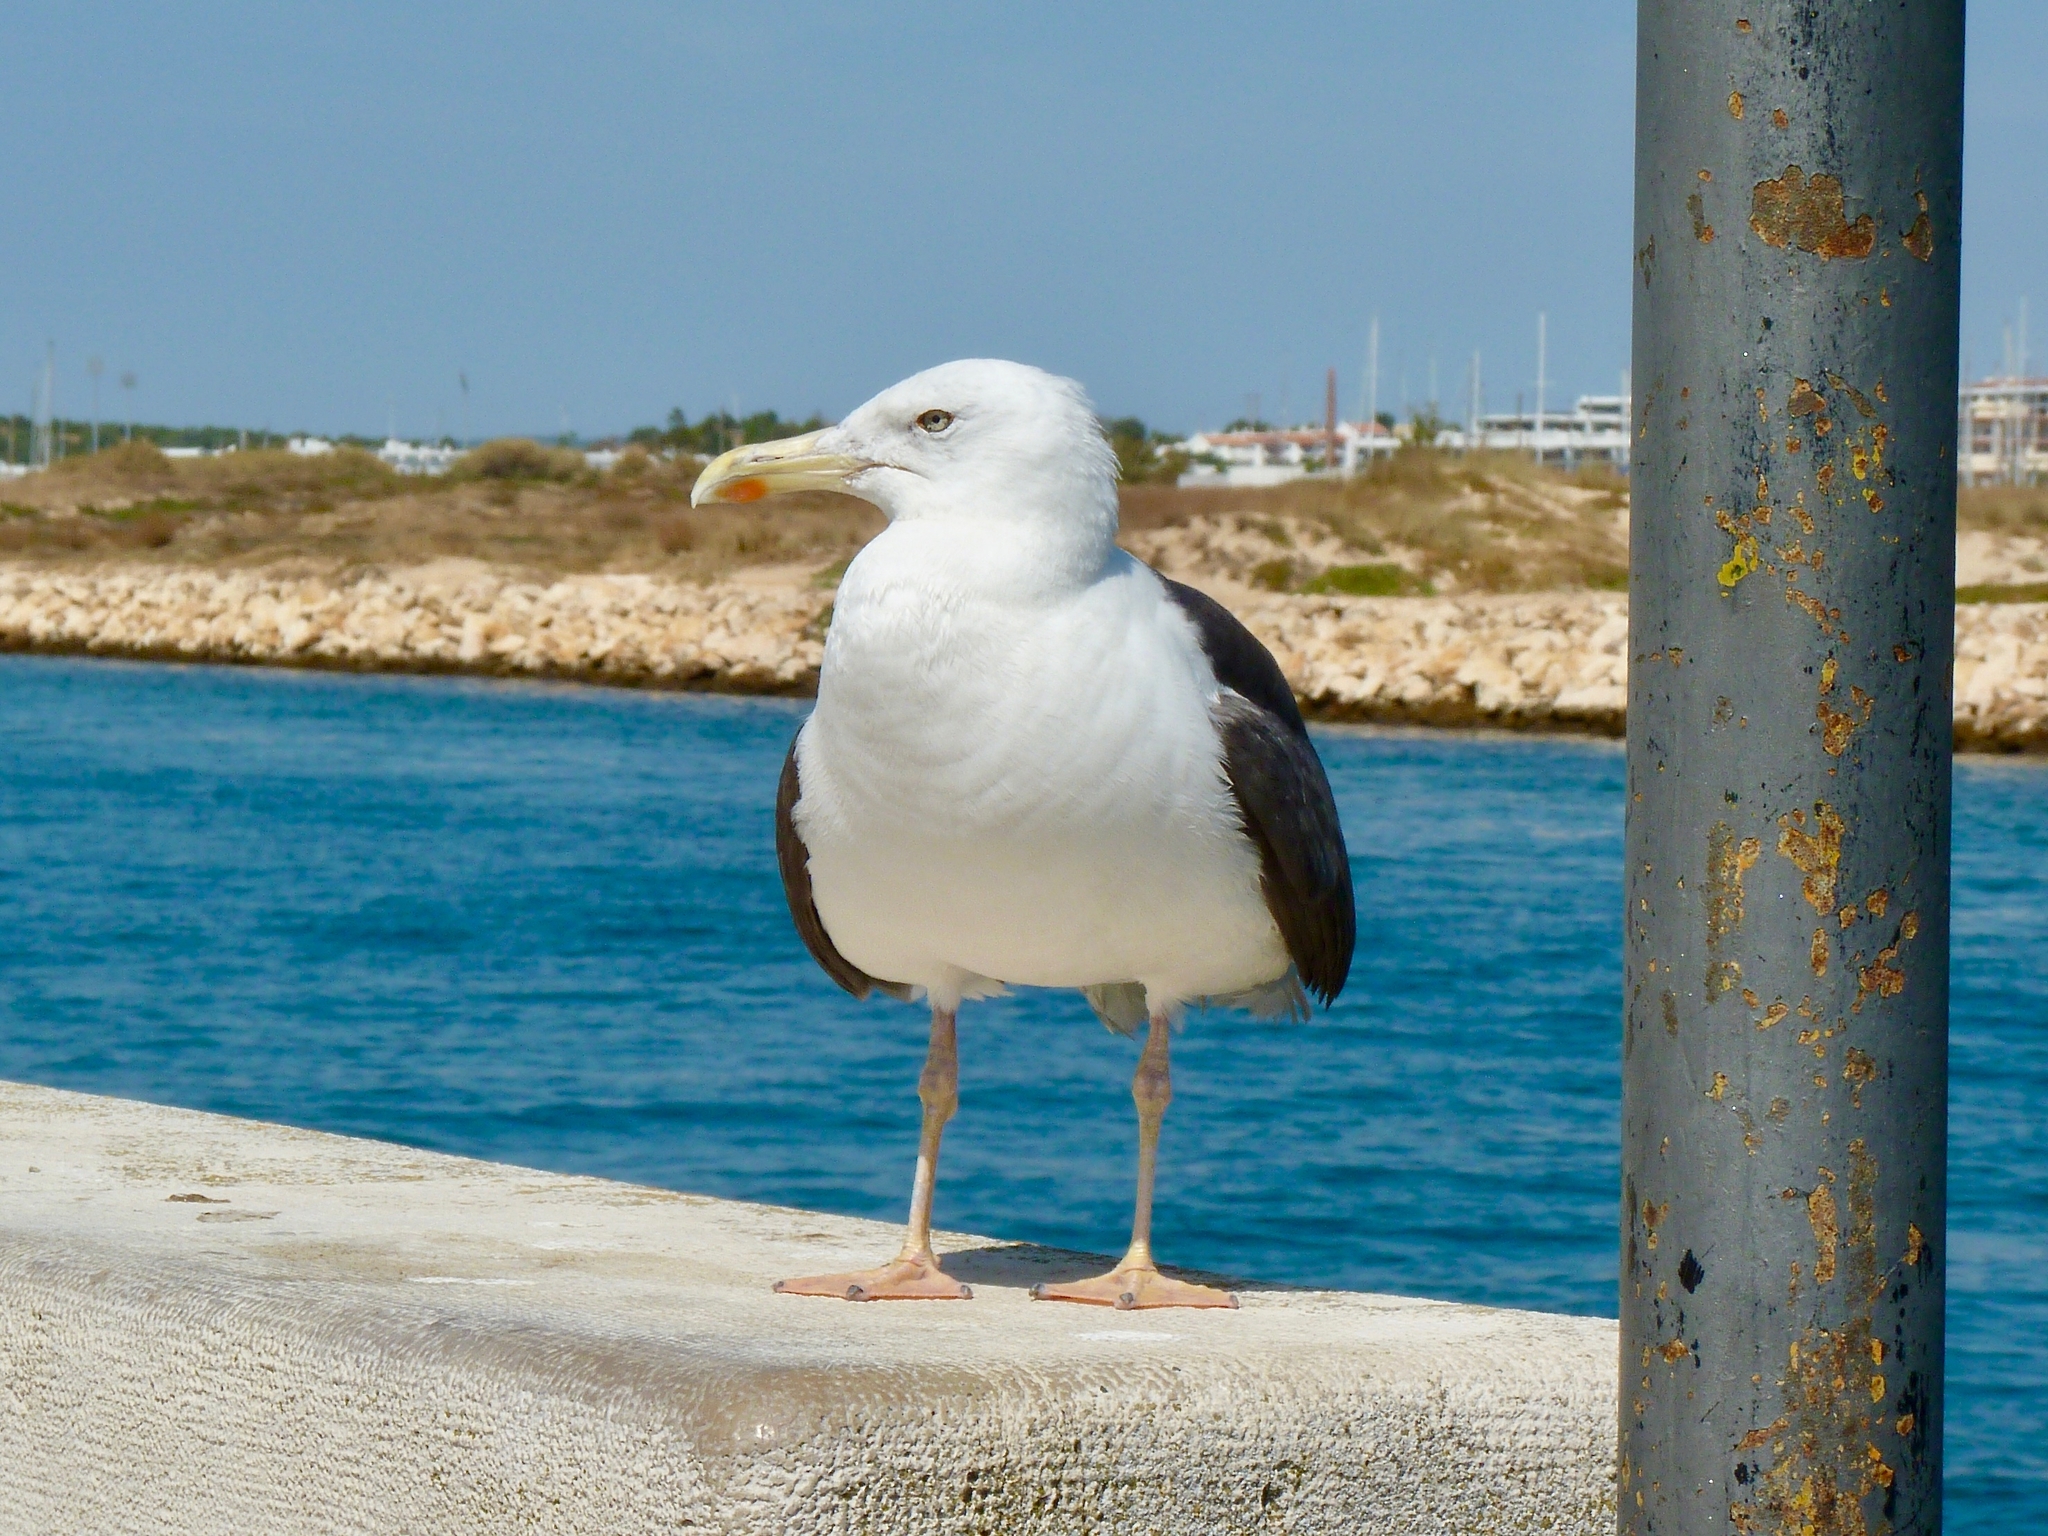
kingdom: Animalia
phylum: Chordata
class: Aves
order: Charadriiformes
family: Laridae
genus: Larus
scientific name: Larus fuscus
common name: Lesser black-backed gull
